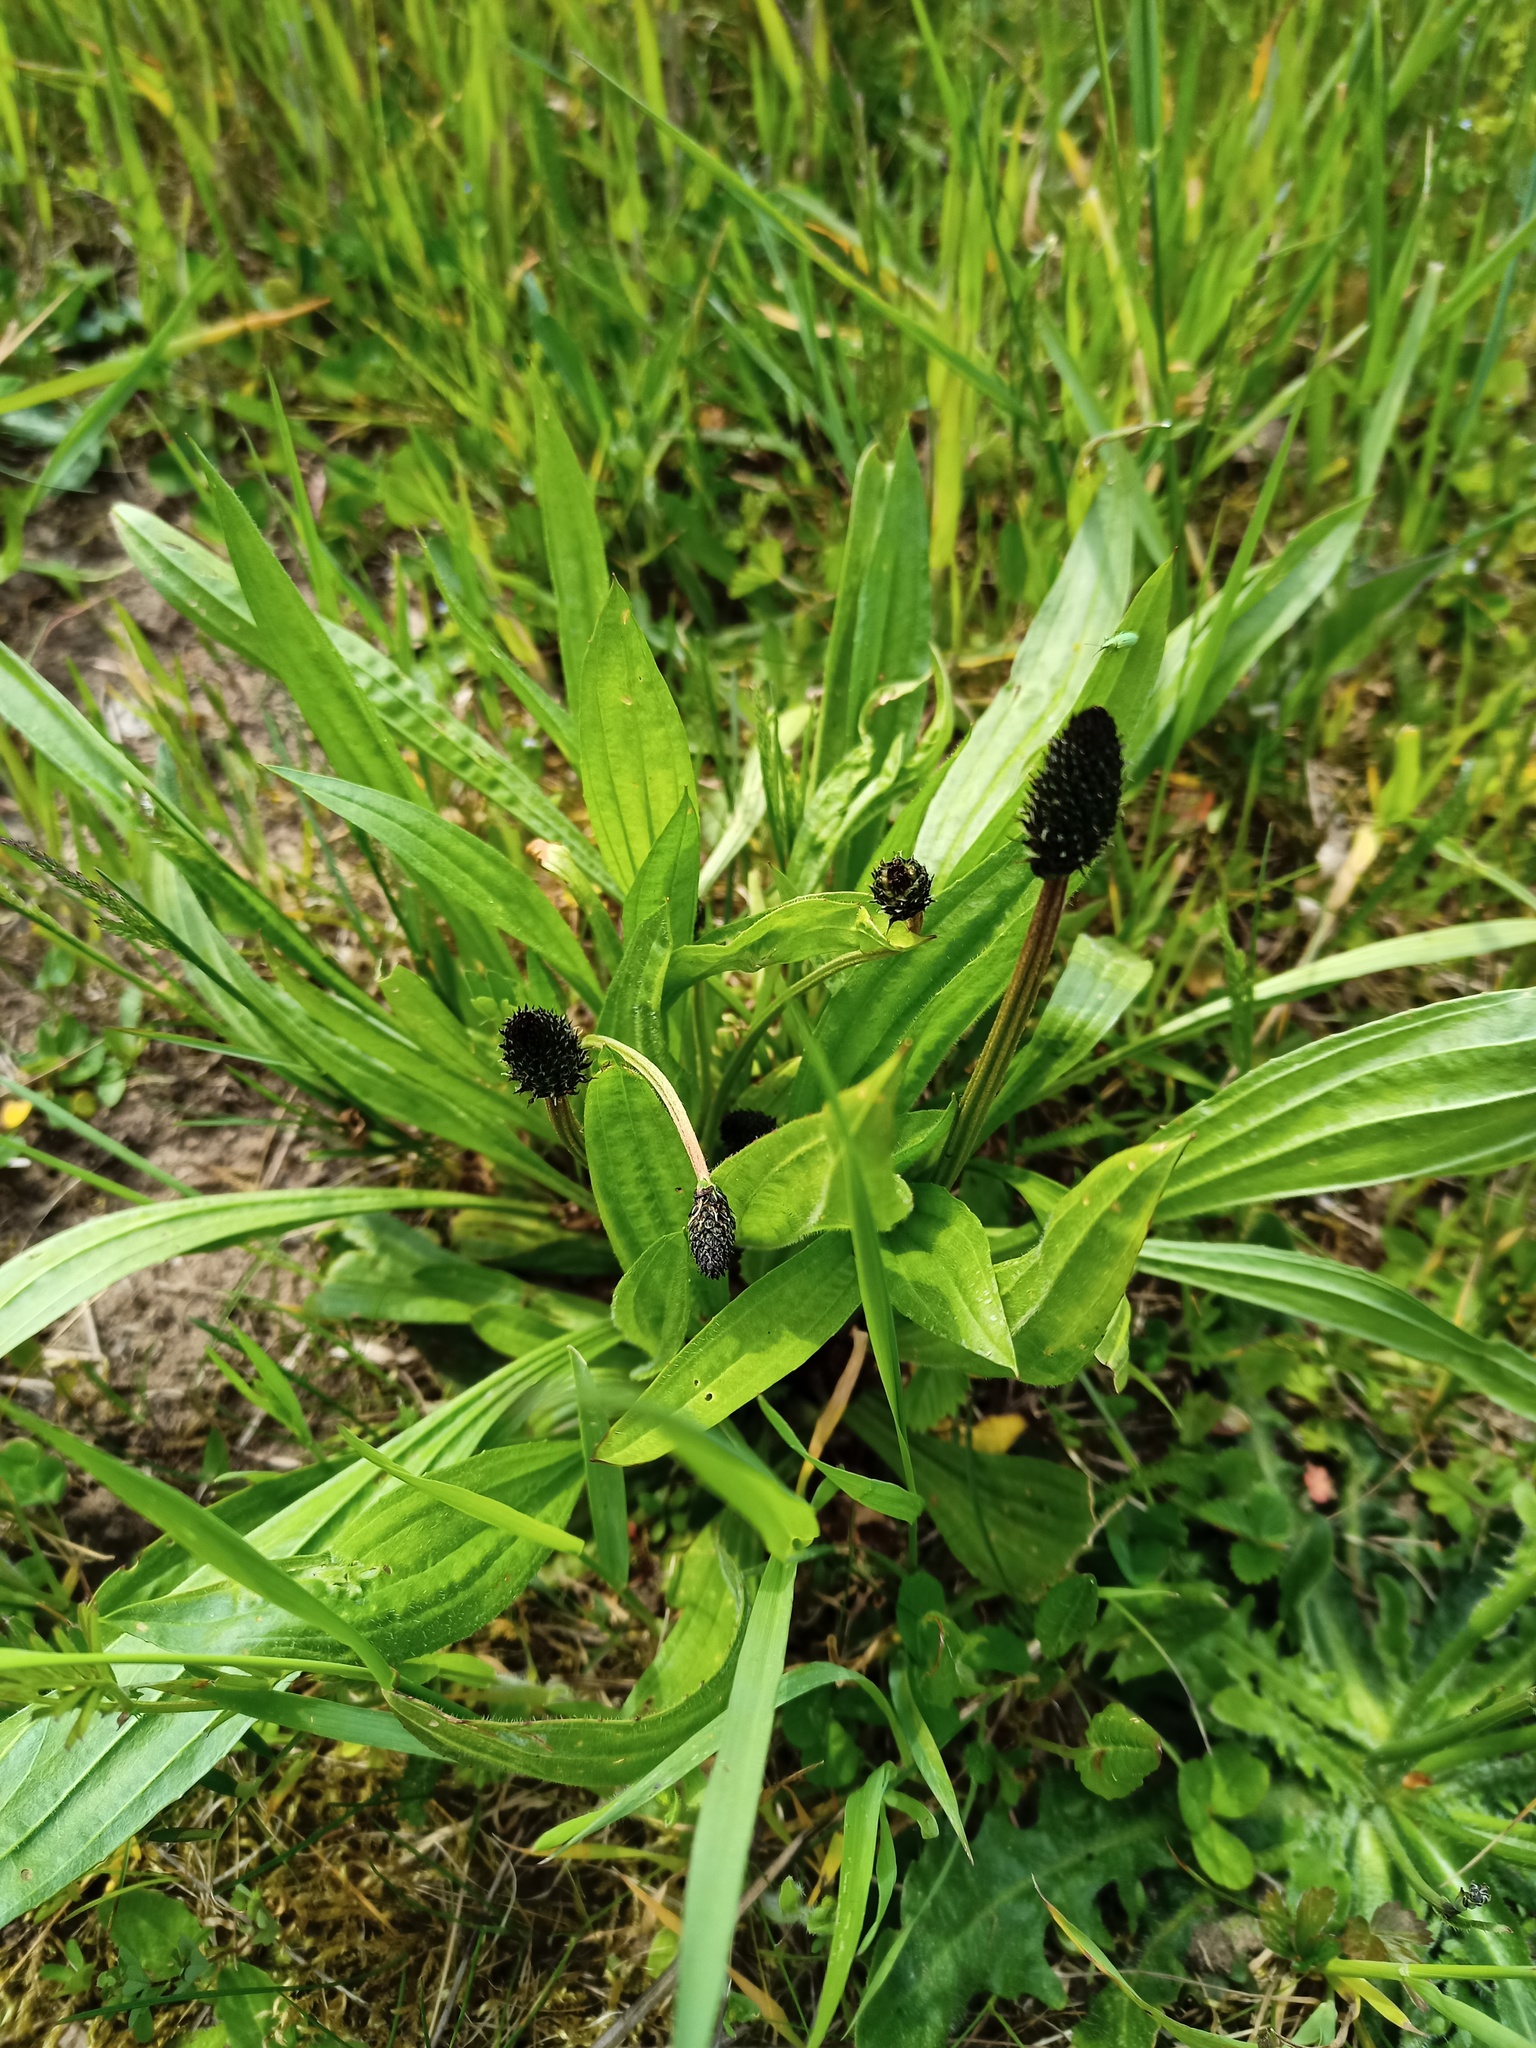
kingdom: Plantae
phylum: Tracheophyta
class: Magnoliopsida
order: Lamiales
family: Plantaginaceae
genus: Plantago
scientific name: Plantago lanceolata
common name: Ribwort plantain
